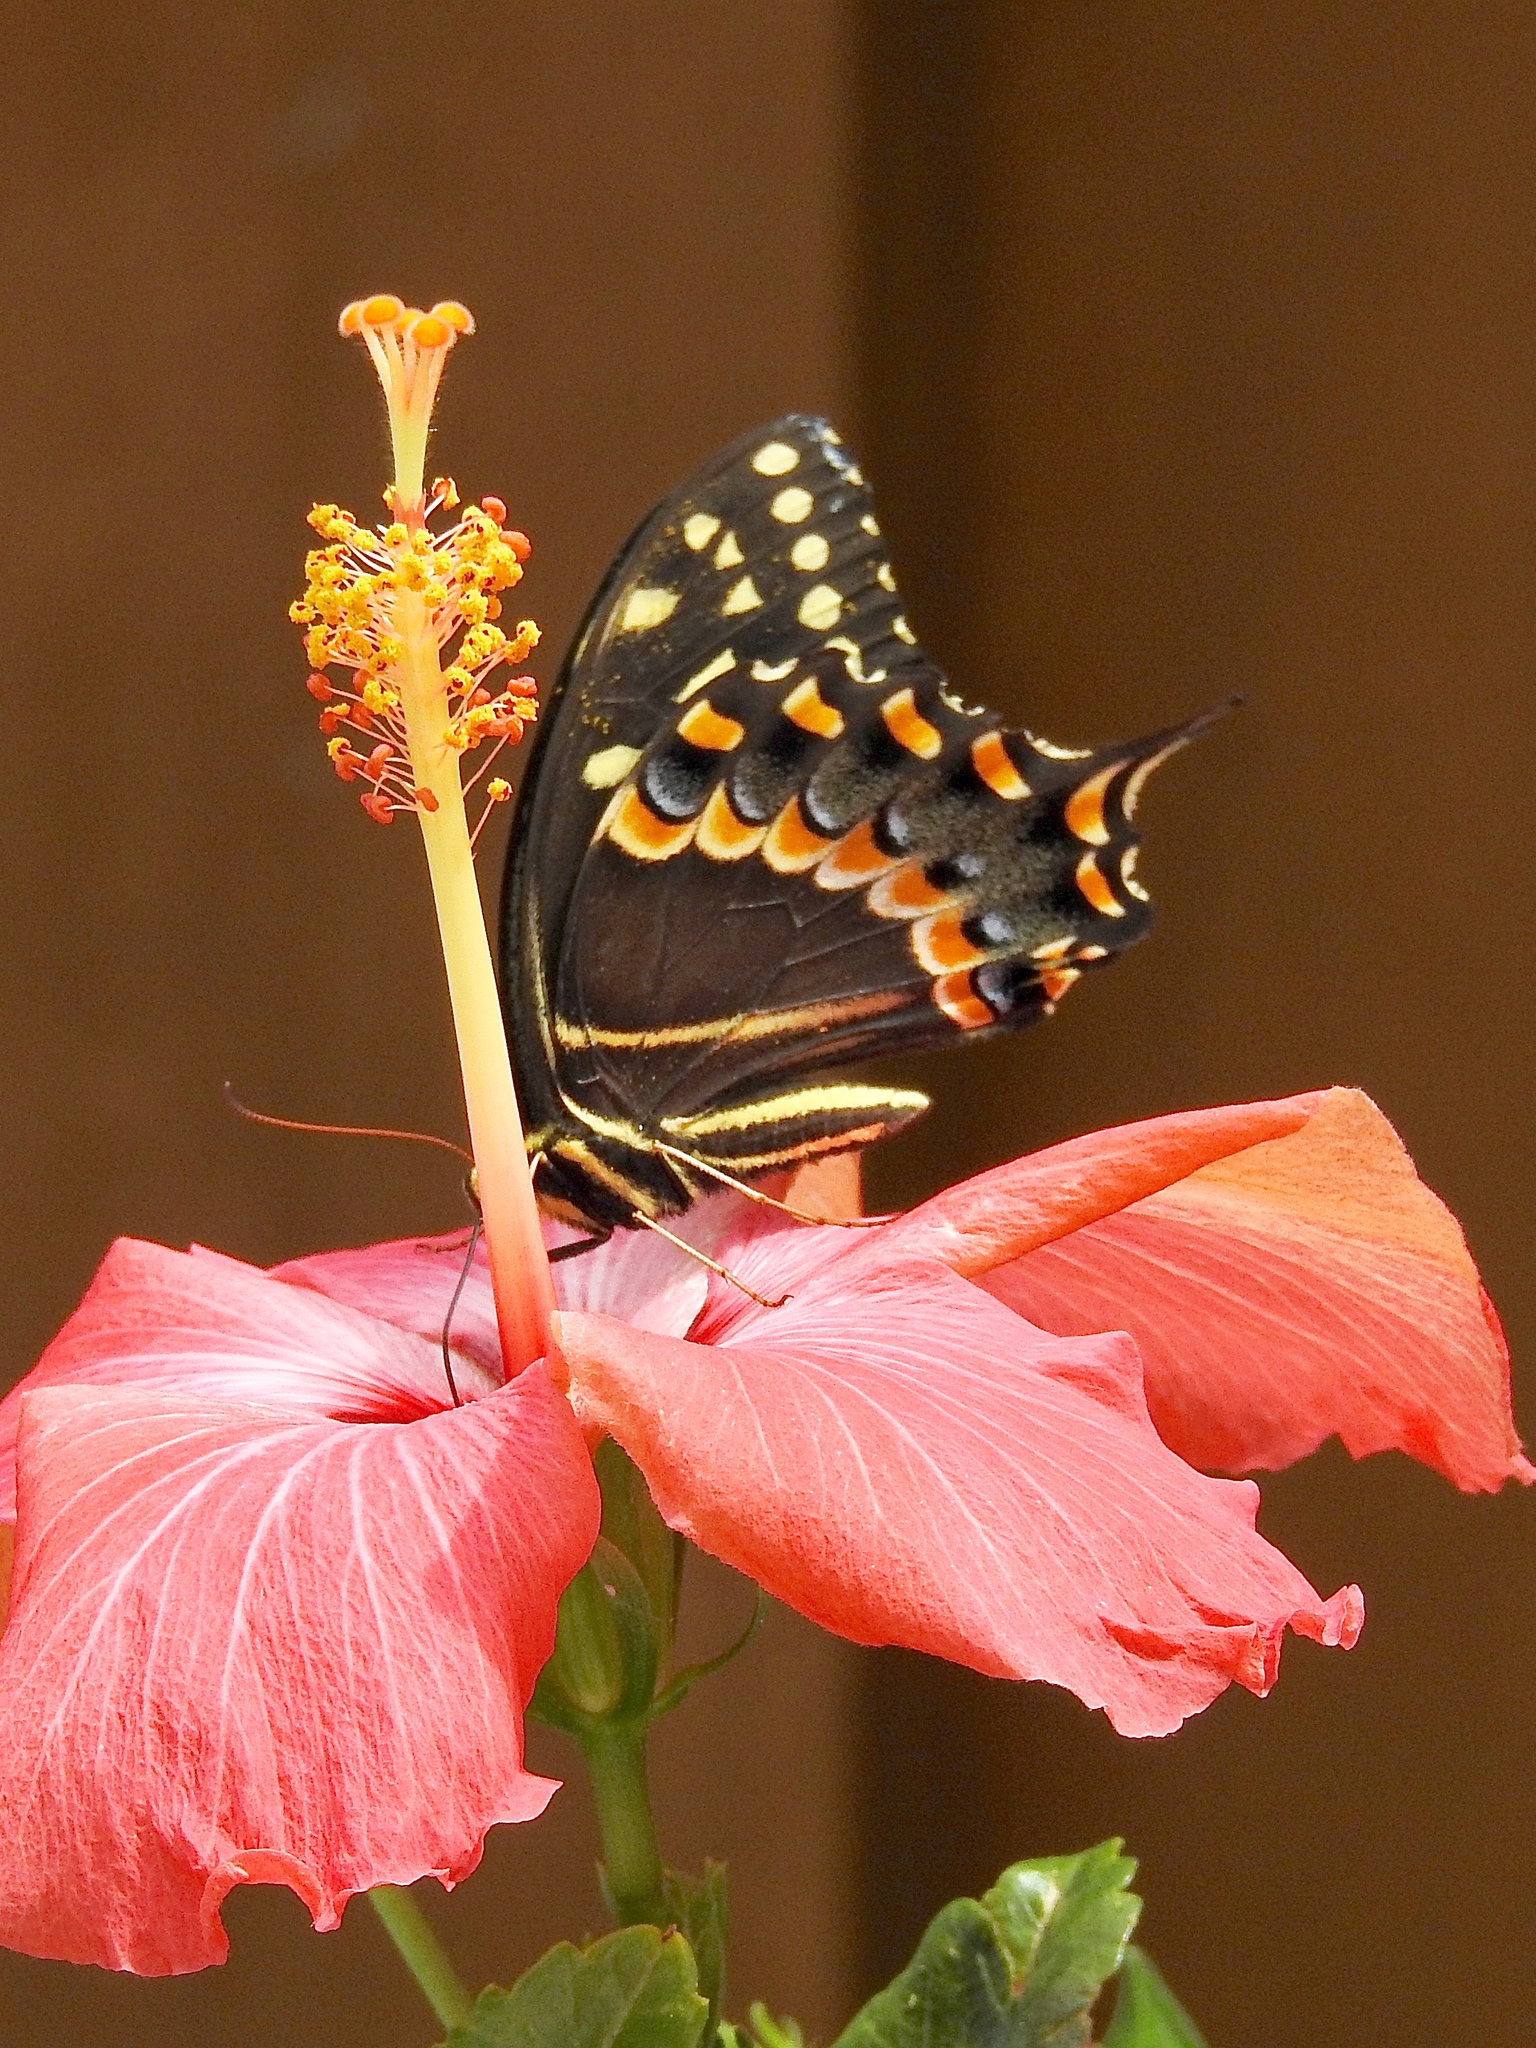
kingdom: Animalia
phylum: Arthropoda
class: Insecta
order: Lepidoptera
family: Papilionidae
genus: Papilio
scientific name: Papilio palamedes
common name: Palamedes swallowtail
